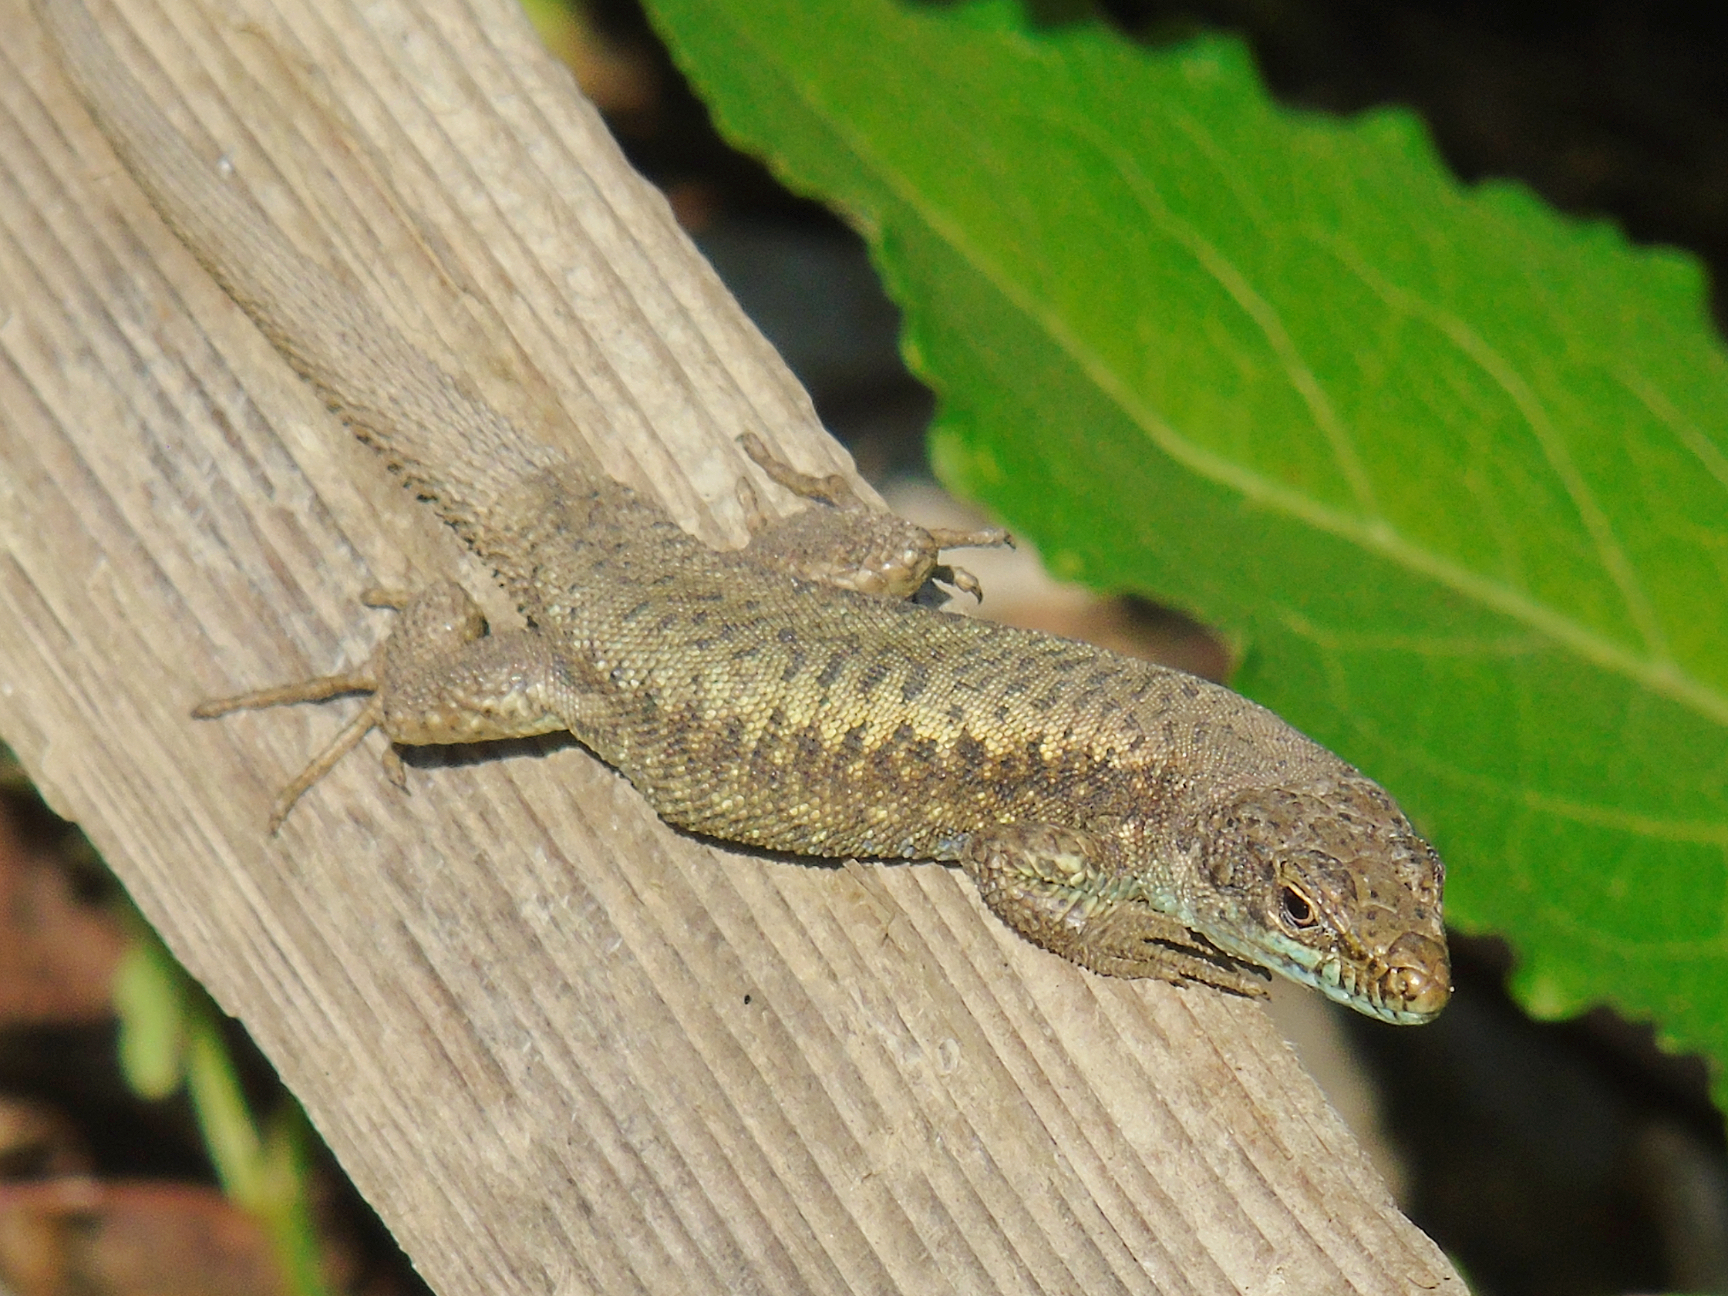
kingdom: Animalia
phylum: Chordata
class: Squamata
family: Lacertidae
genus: Darevskia
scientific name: Darevskia rudis
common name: Spiny-tailed lizard
